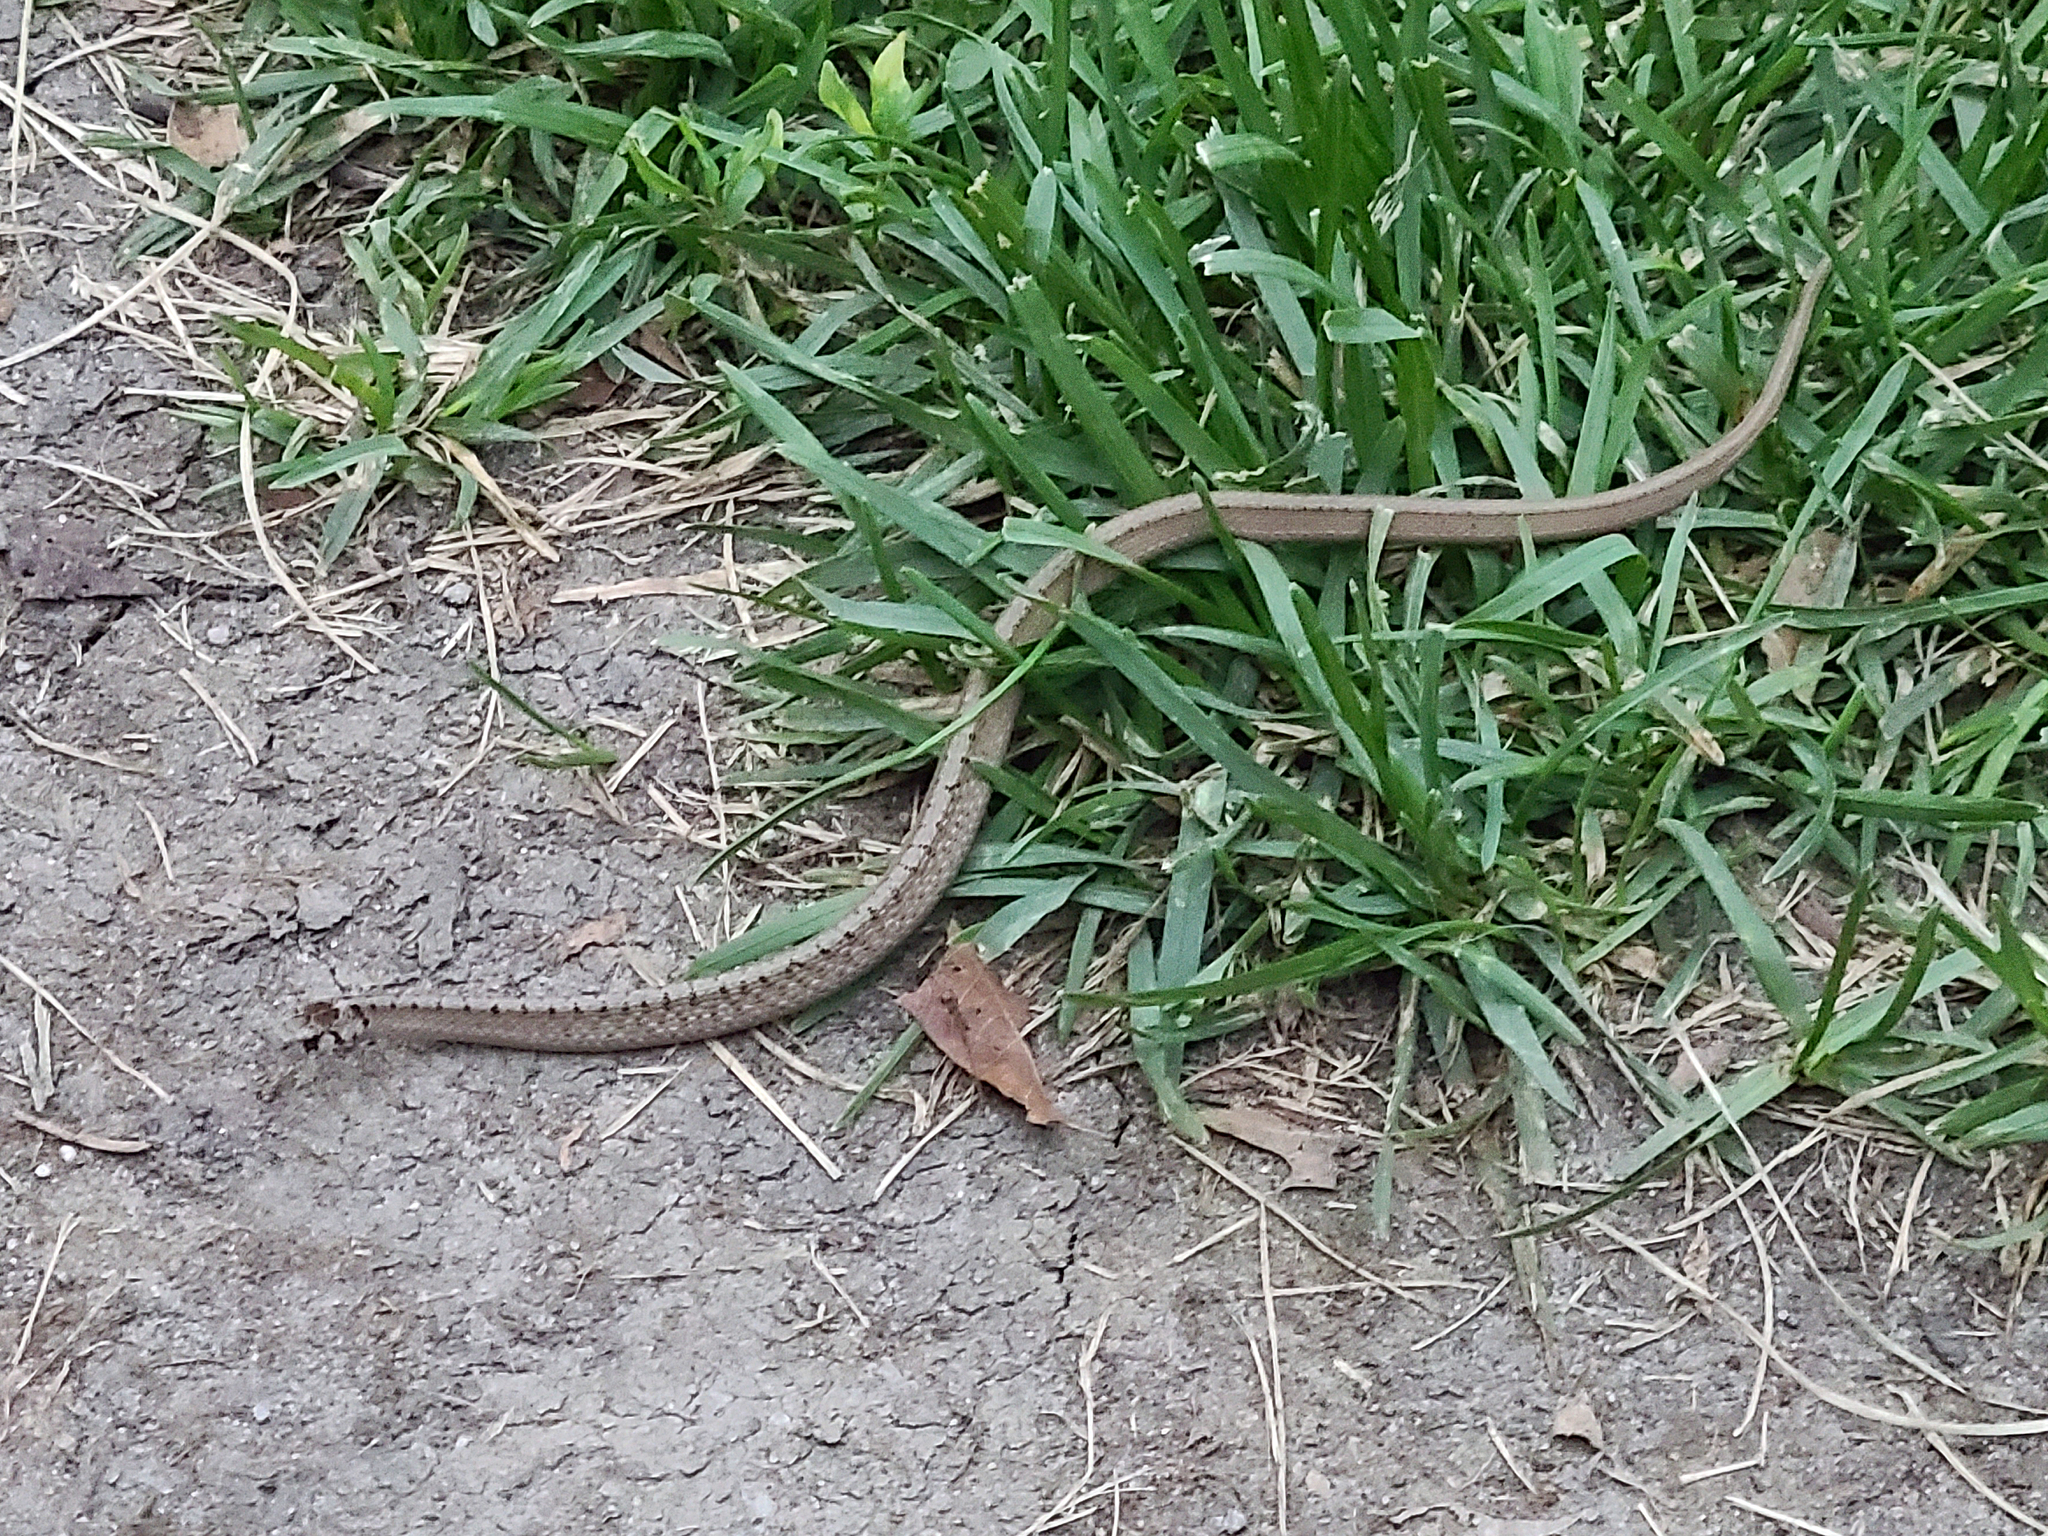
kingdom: Animalia
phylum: Chordata
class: Squamata
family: Colubridae
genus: Storeria
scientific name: Storeria dekayi
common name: (dekay’s) brown snake
